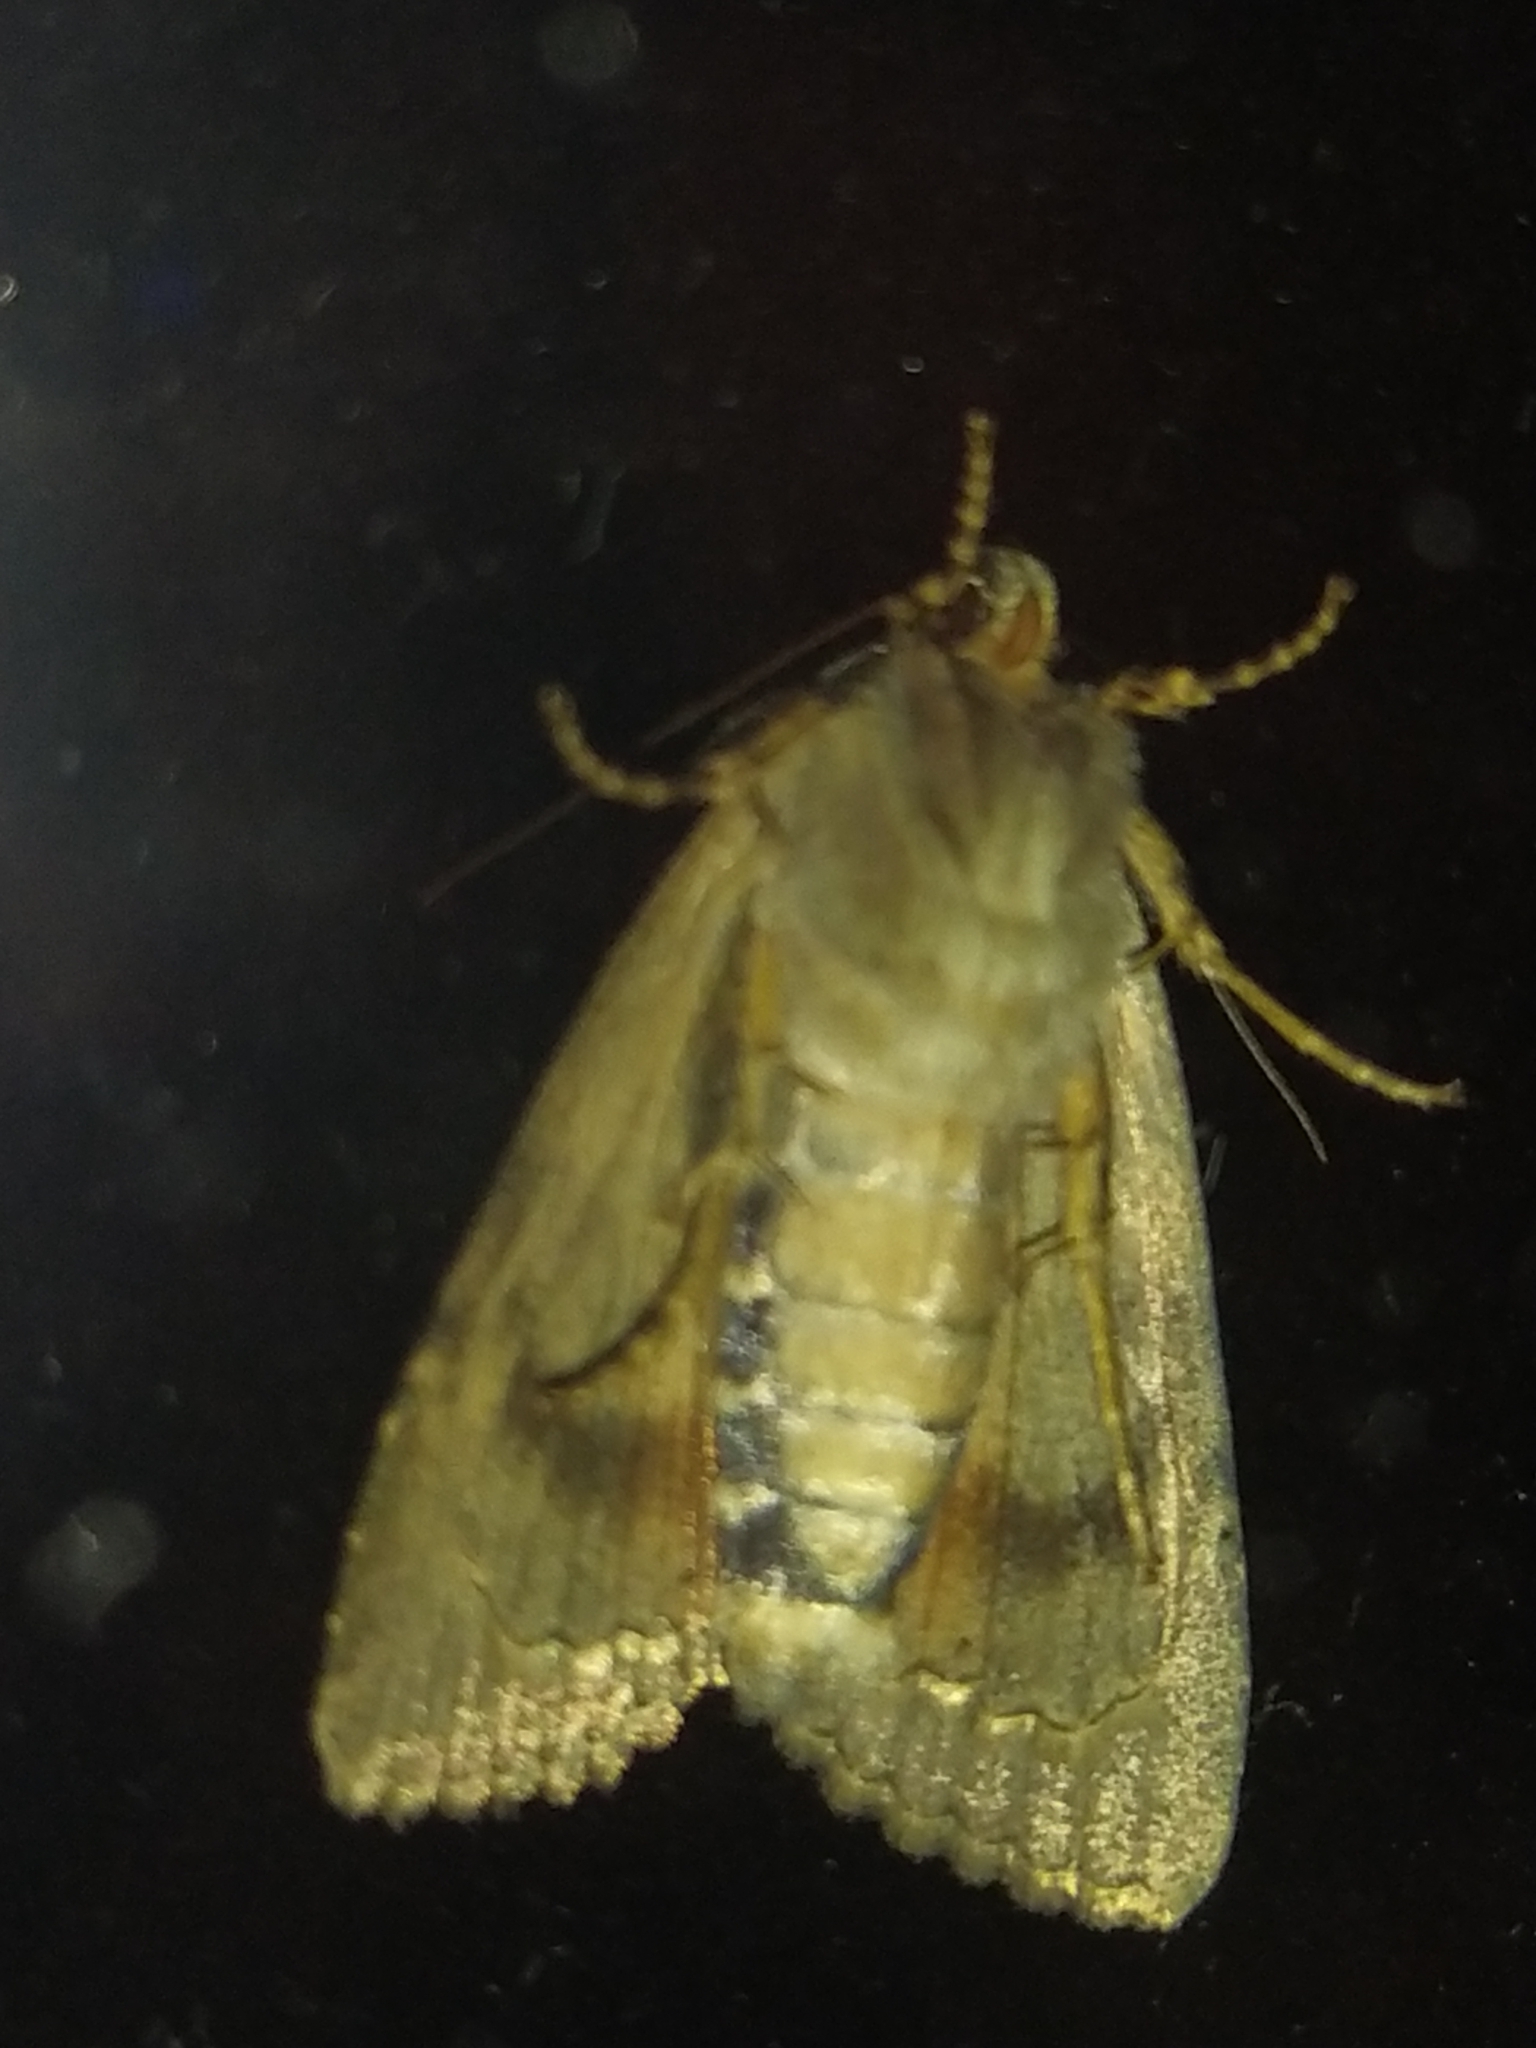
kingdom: Animalia
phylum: Arthropoda
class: Insecta
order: Lepidoptera
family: Noctuidae
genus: Amphipyra
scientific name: Amphipyra berbera
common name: Svensson's copper underwing
